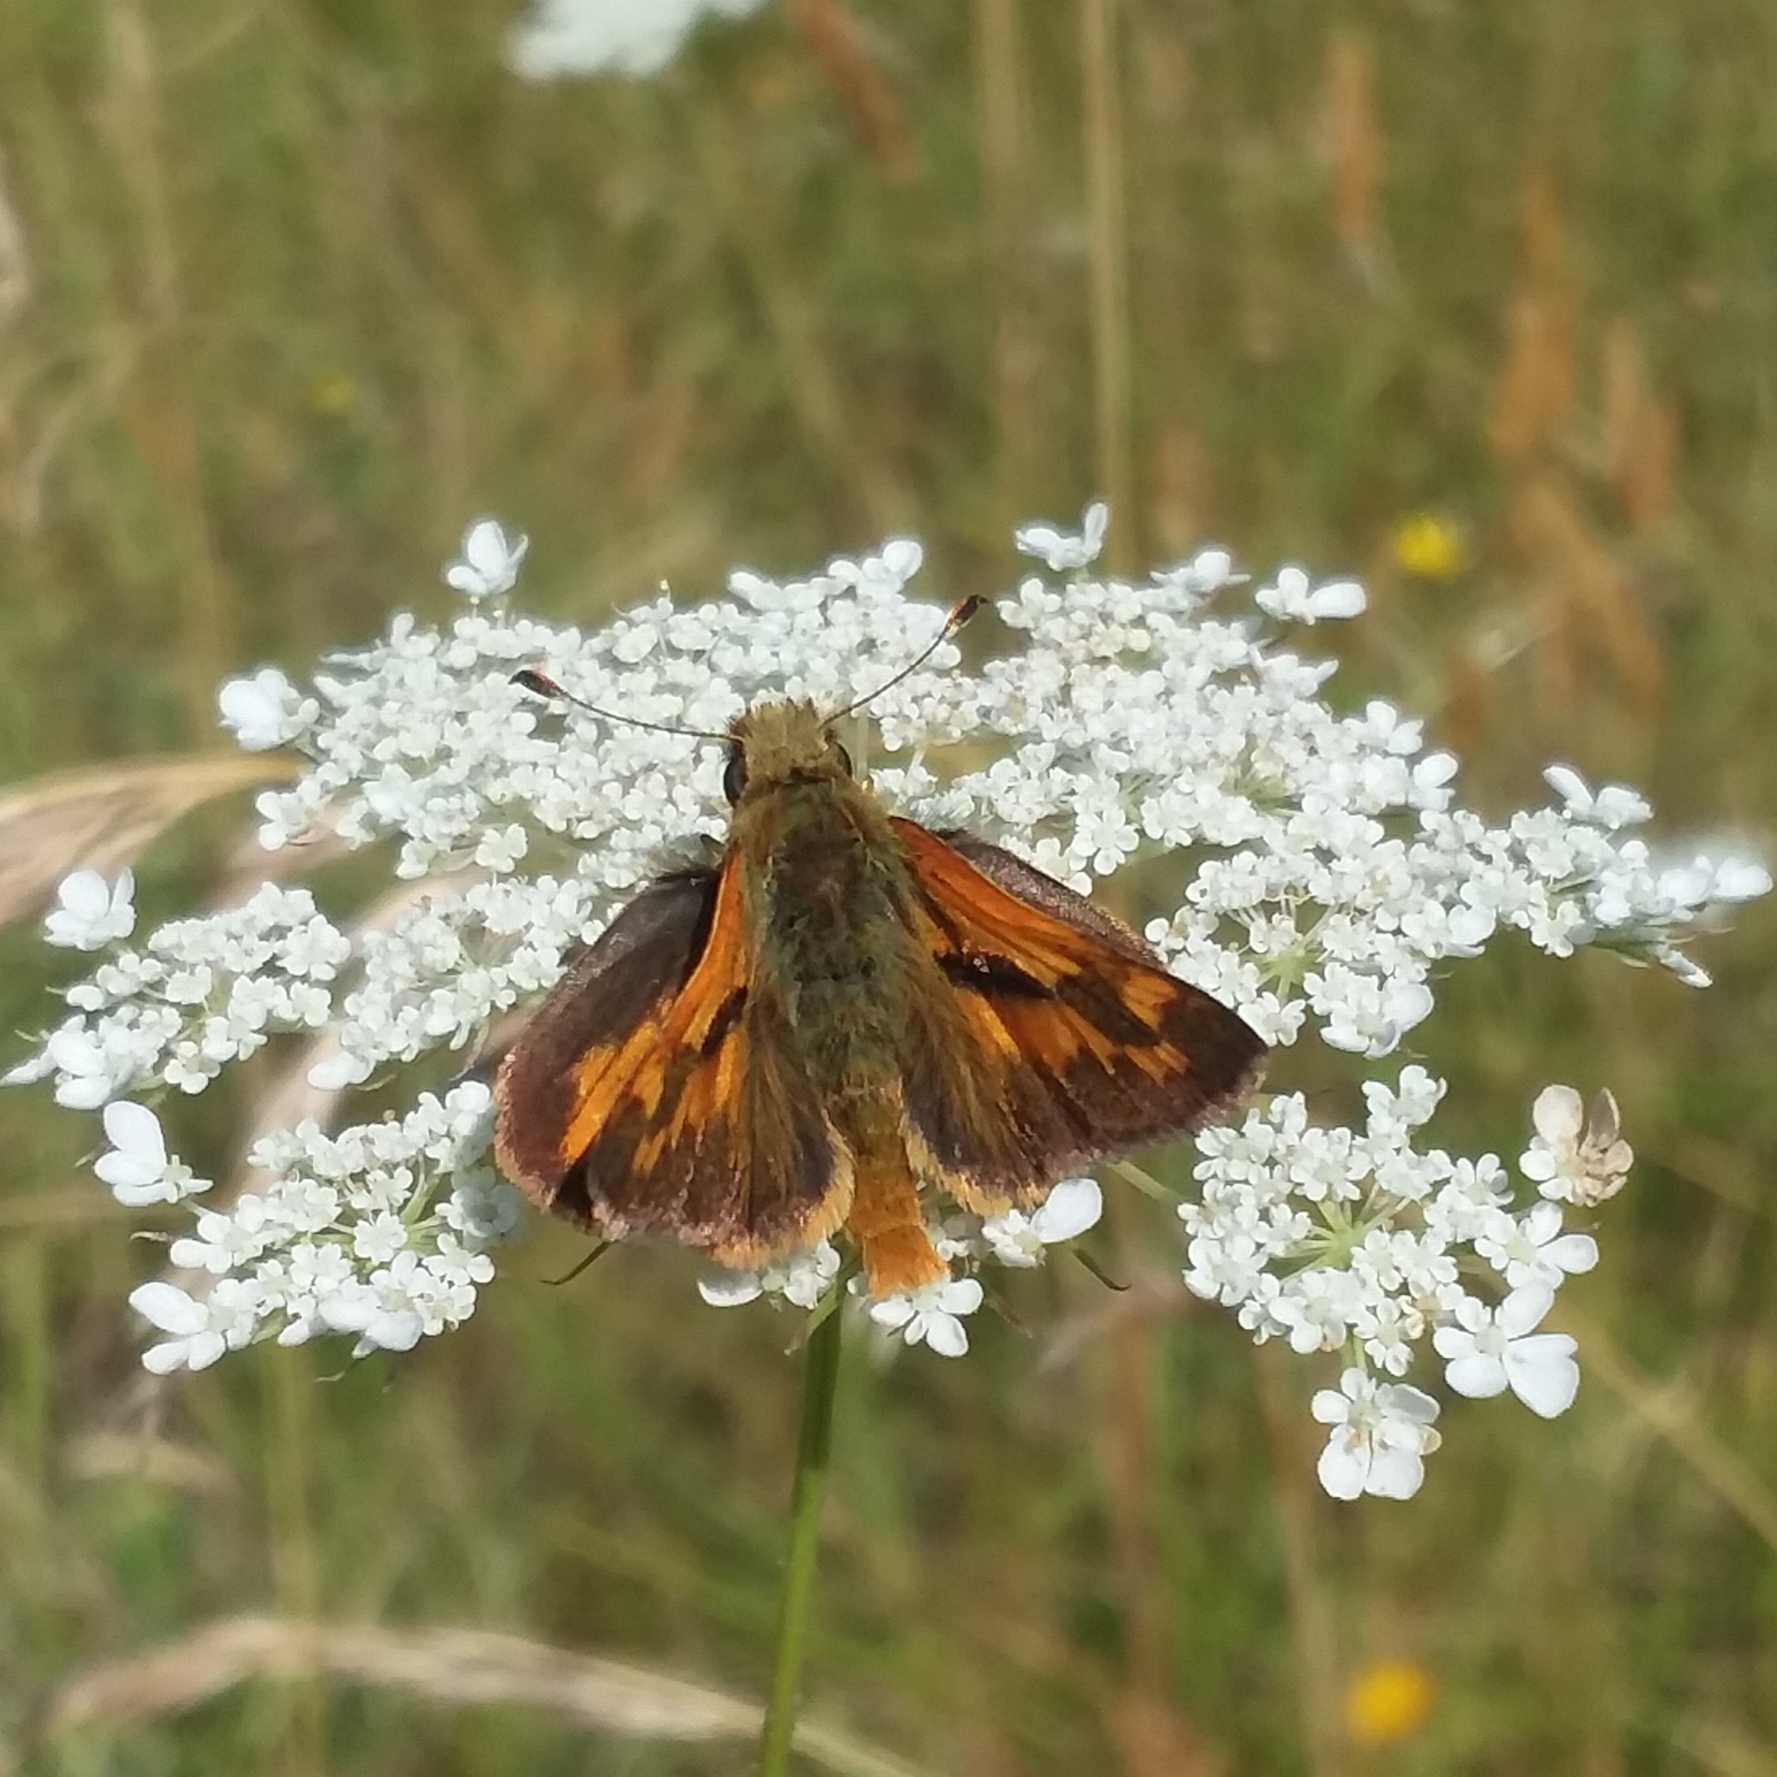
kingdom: Animalia
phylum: Arthropoda
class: Insecta
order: Lepidoptera
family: Hesperiidae
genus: Ochlodes
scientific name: Ochlodes sylvanoides
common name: Woodland skipper
